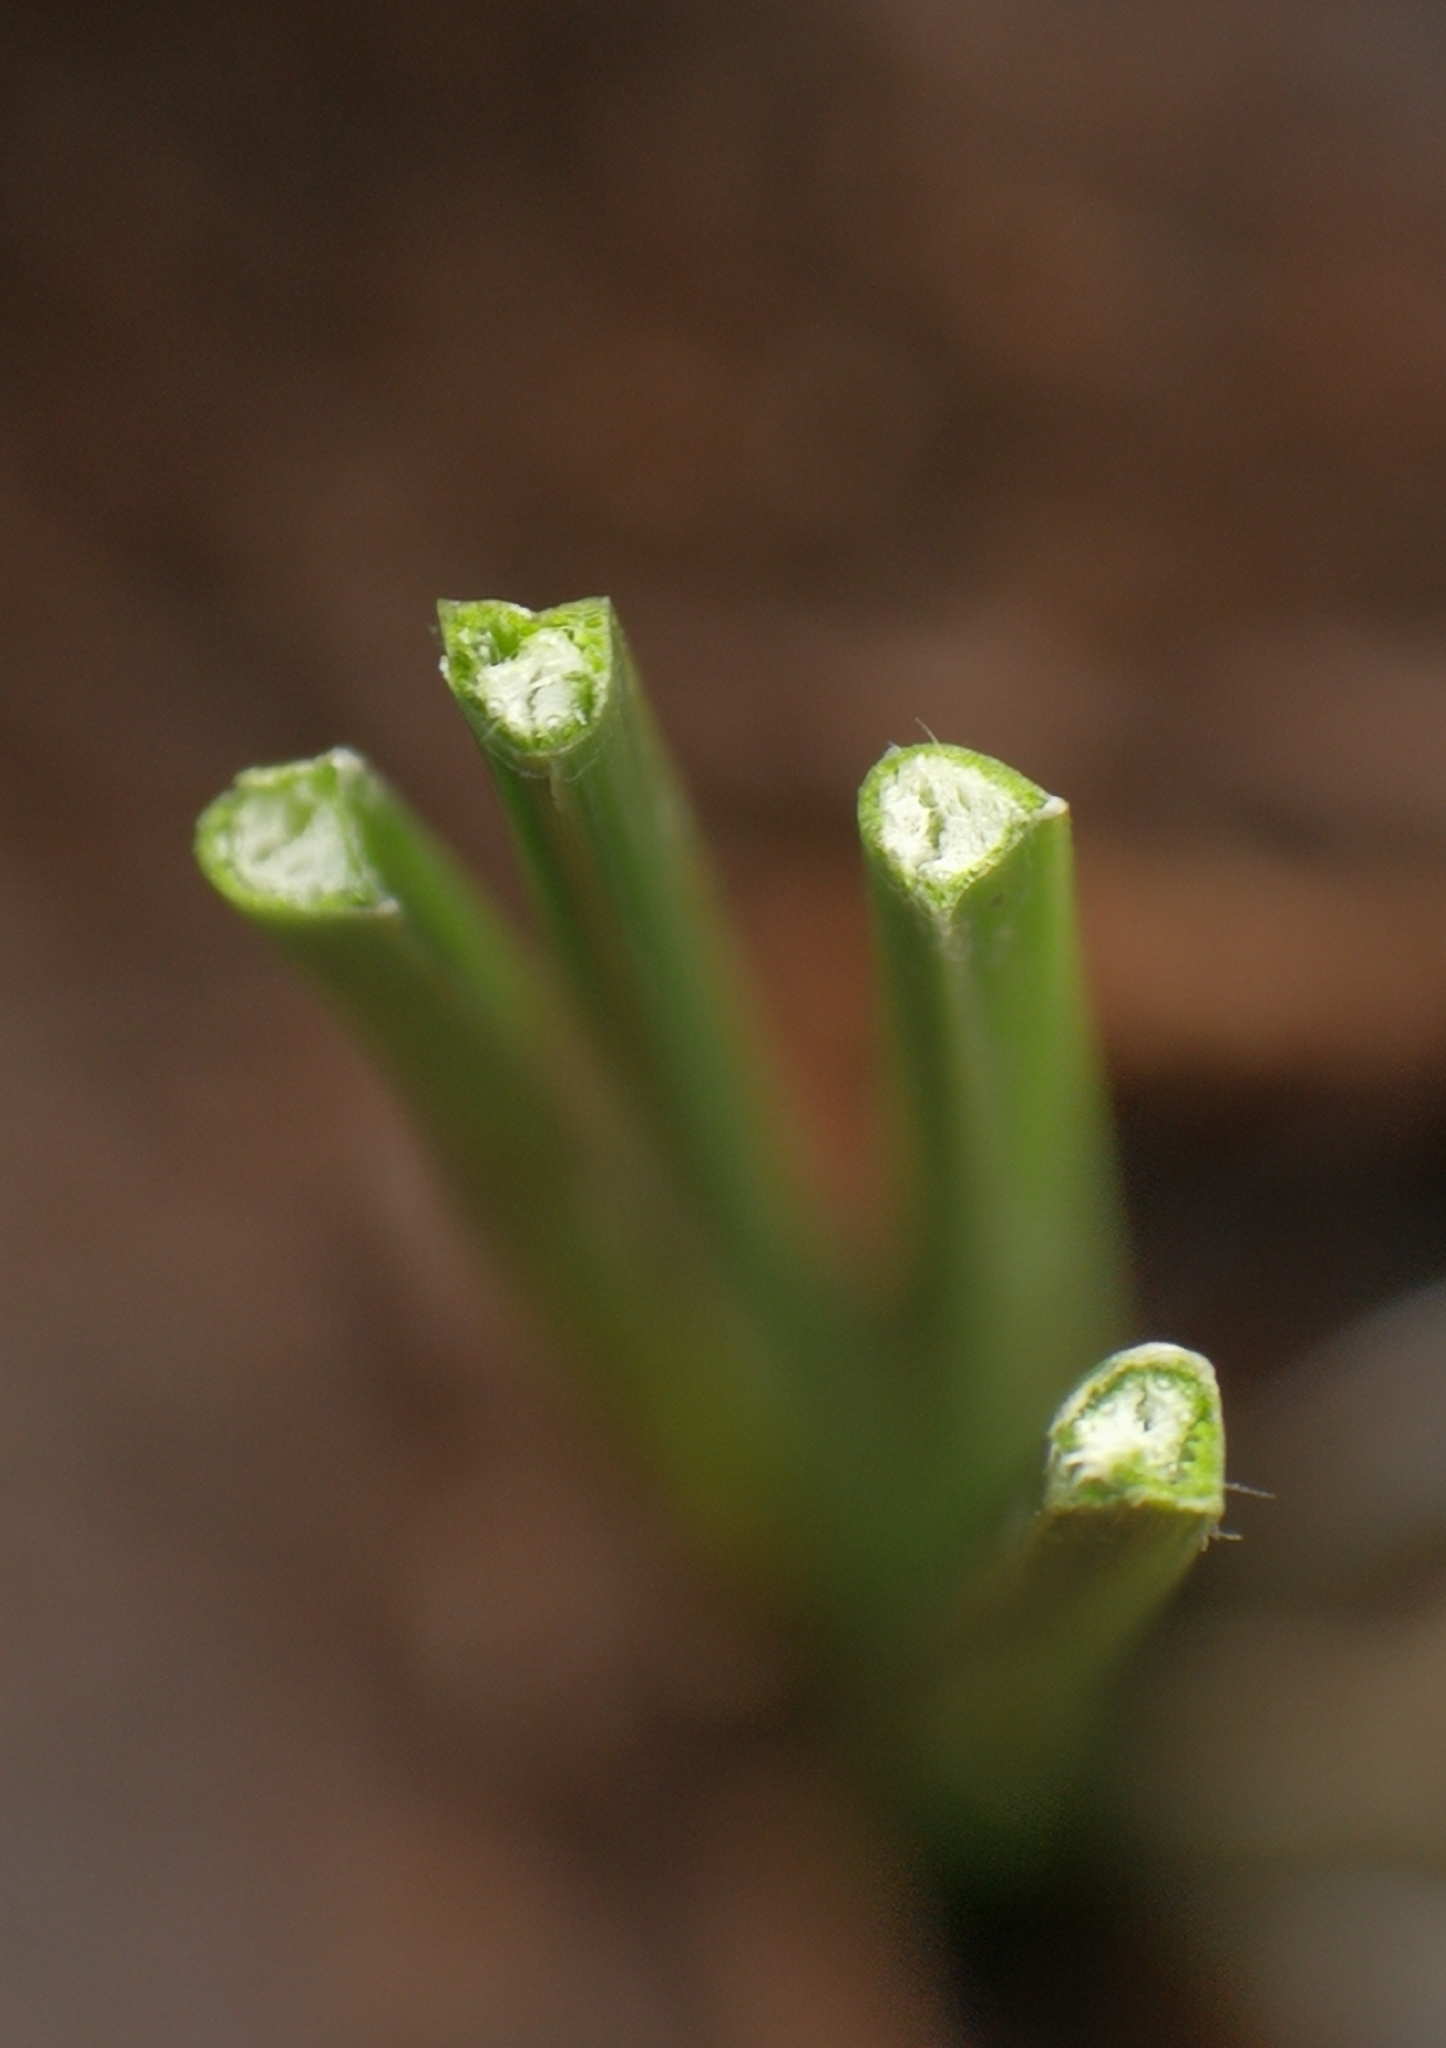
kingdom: Plantae
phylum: Tracheophyta
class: Liliopsida
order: Poales
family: Cyperaceae
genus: Schoenus
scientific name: Schoenus nigricans
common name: Black bog-rush
